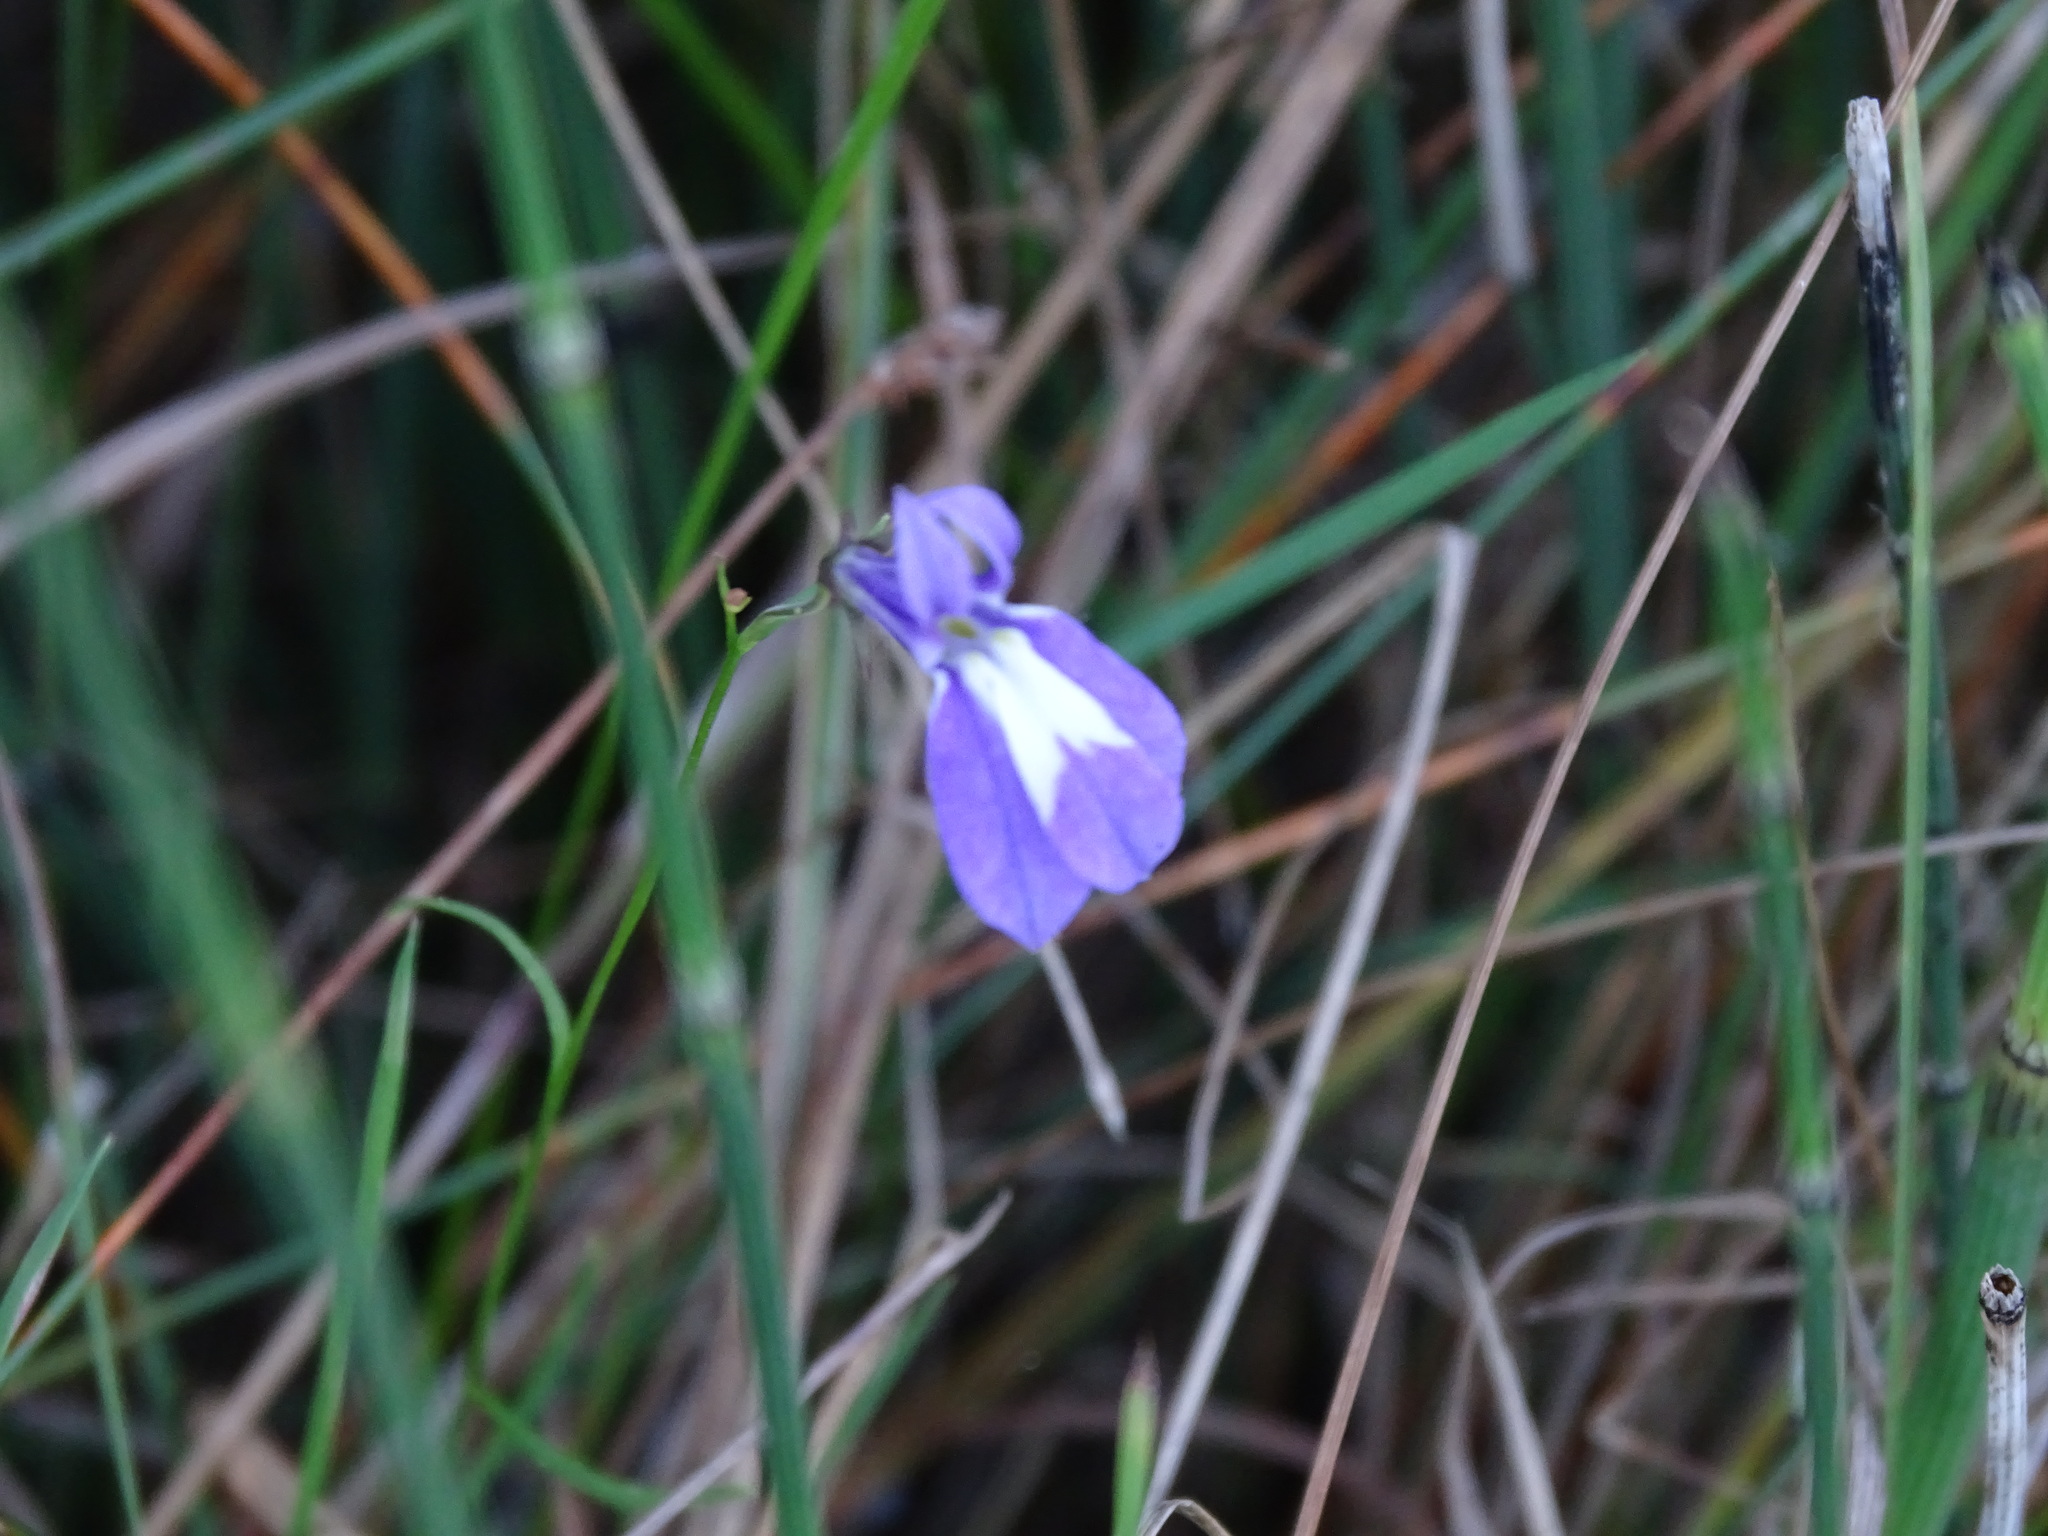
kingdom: Plantae
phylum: Tracheophyta
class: Magnoliopsida
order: Asterales
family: Campanulaceae
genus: Lobelia
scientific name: Lobelia kalmii
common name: Kalm's lobelia
